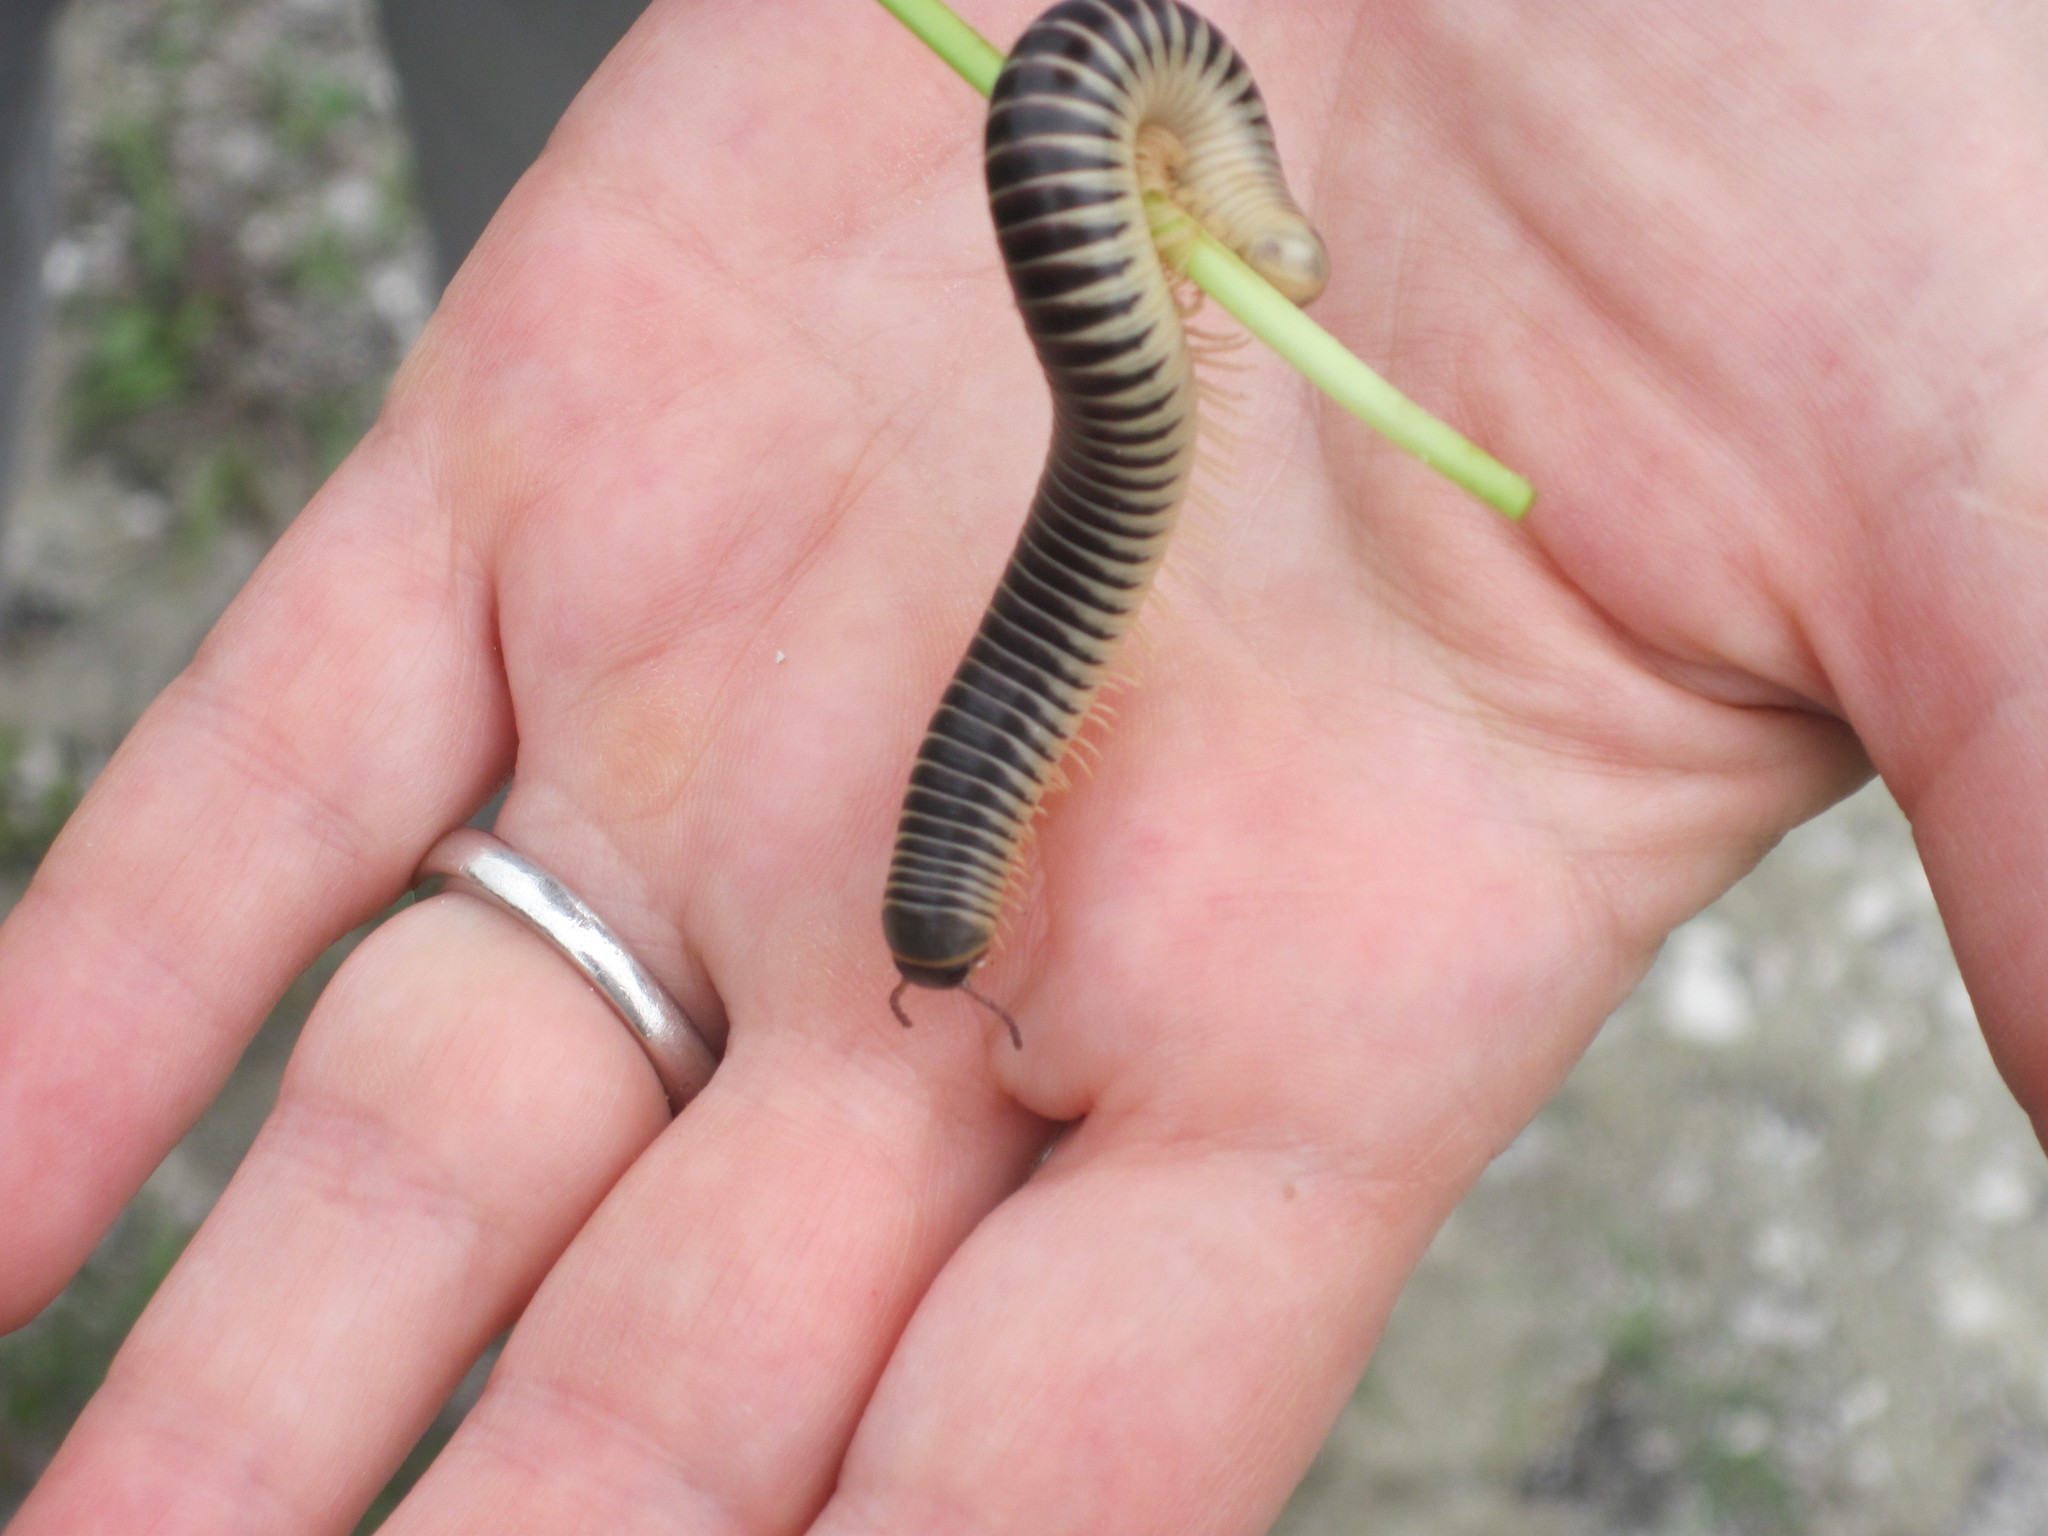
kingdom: Animalia
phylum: Arthropoda
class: Diplopoda
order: Spirobolida
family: Spirobolidae
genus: Chicobolus
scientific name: Chicobolus spinigerus
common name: Florida ivory millipede
